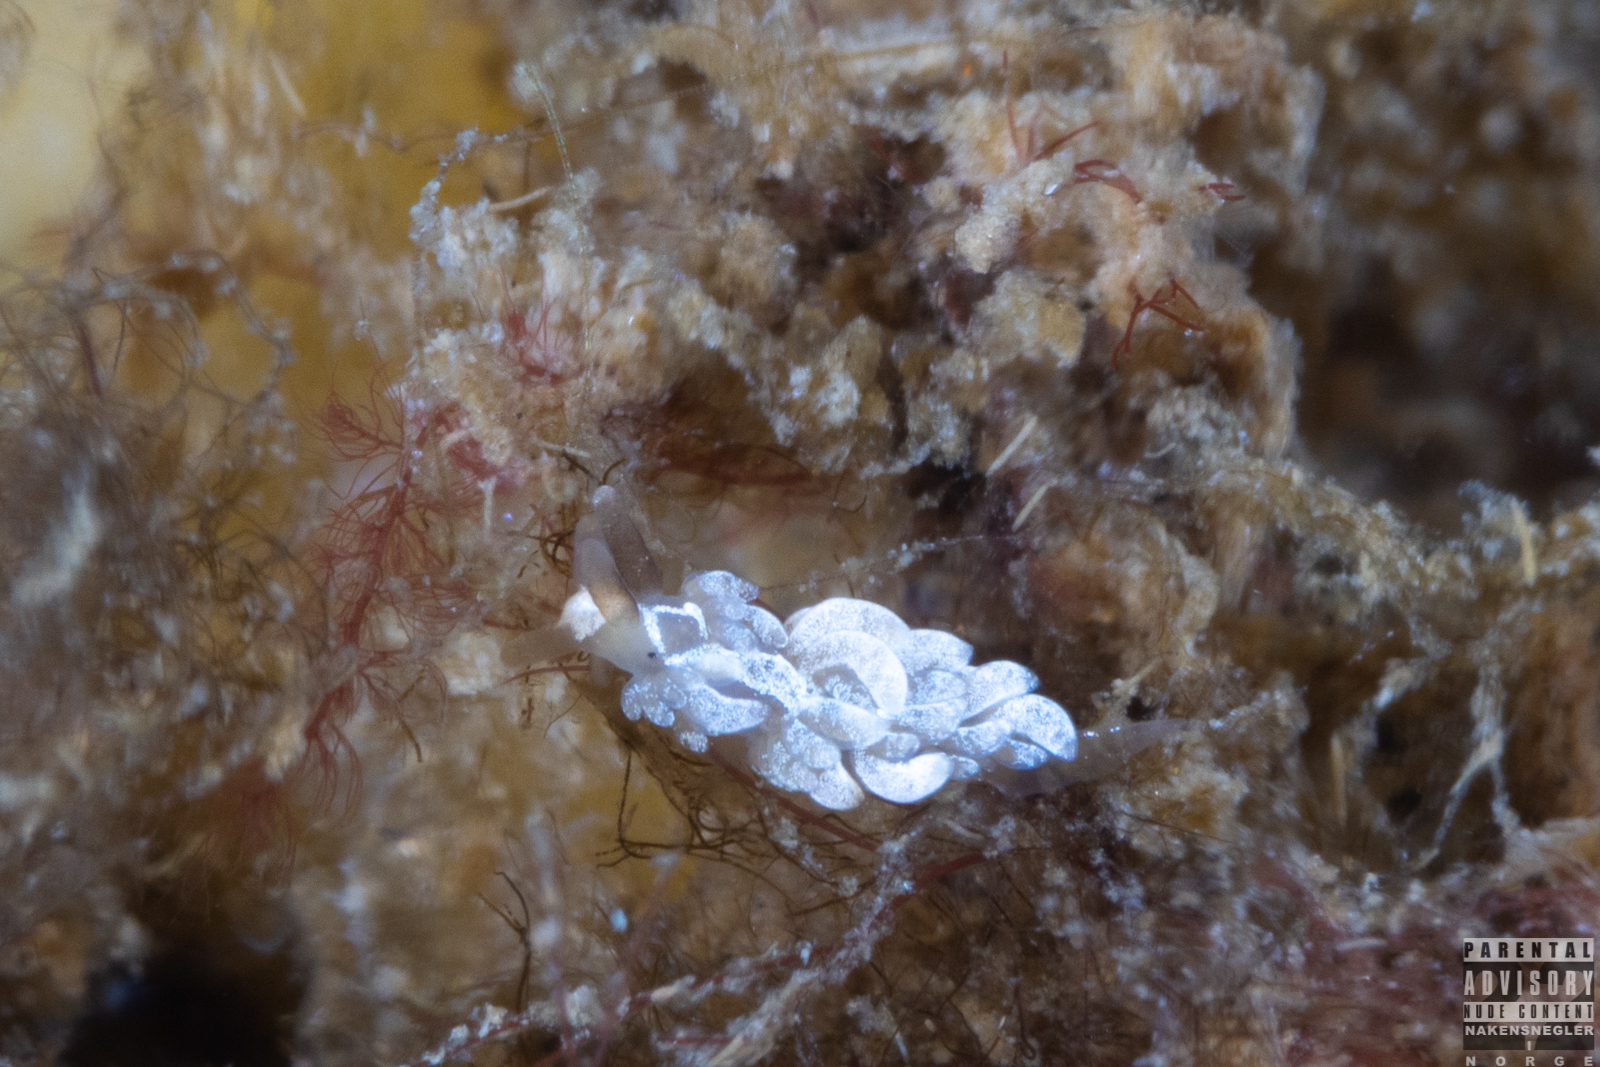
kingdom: Animalia
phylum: Mollusca
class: Gastropoda
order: Nudibranchia
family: Facelinidae
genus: Favorinus
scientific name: Favorinus branchialis
